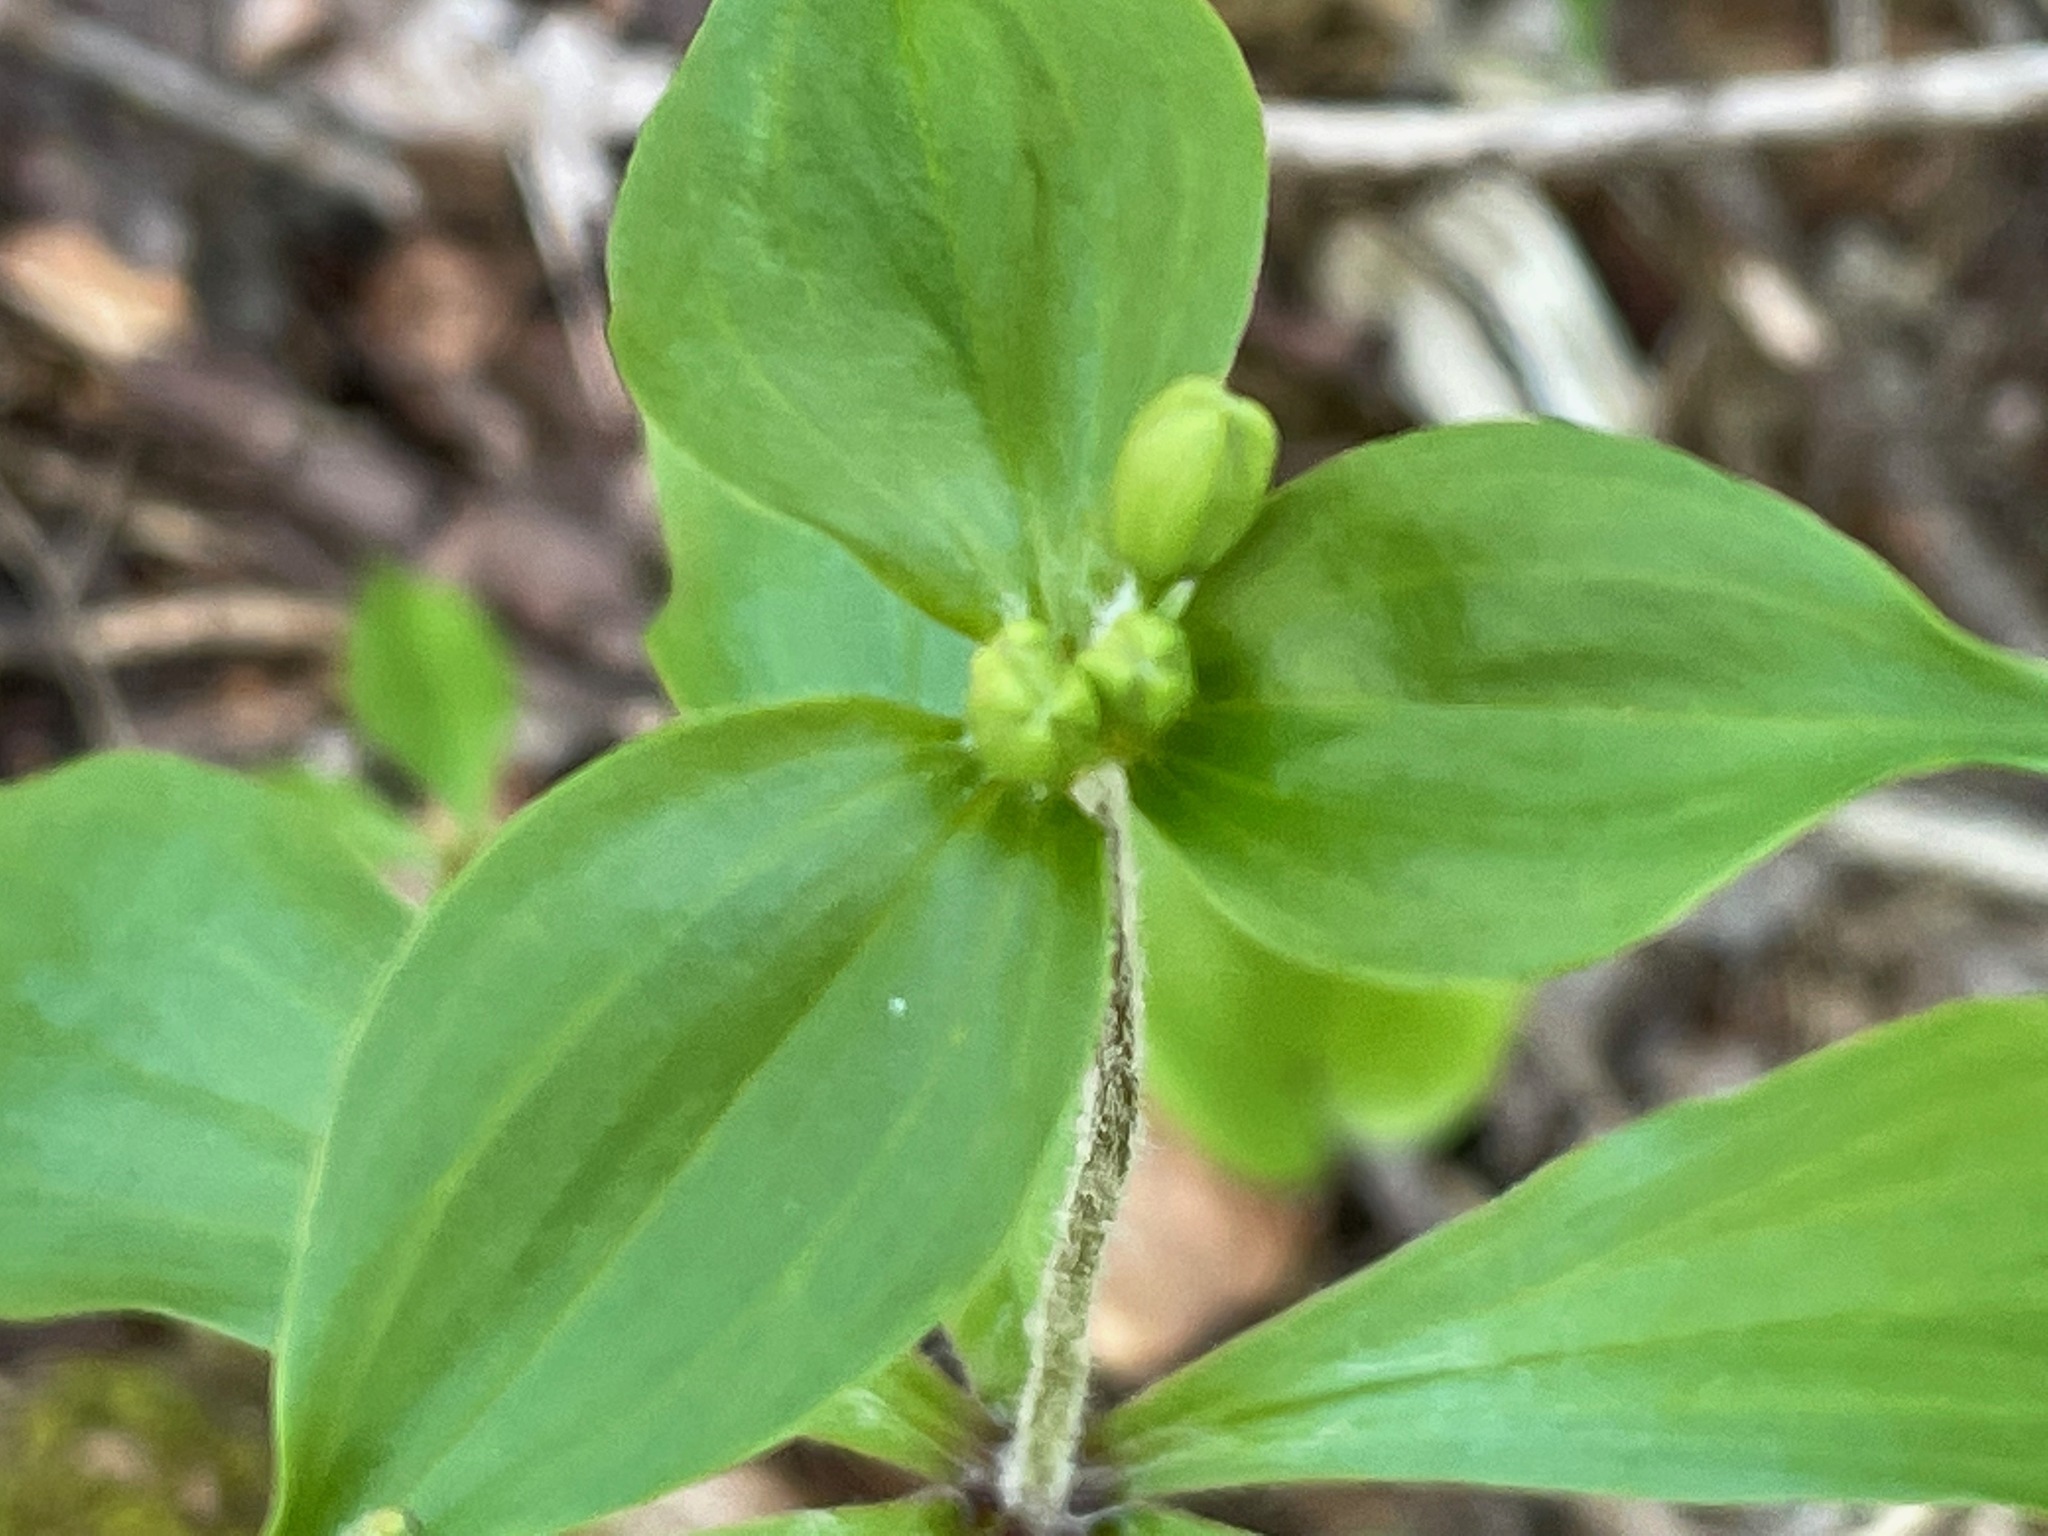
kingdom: Plantae
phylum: Tracheophyta
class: Liliopsida
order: Liliales
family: Liliaceae
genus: Medeola
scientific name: Medeola virginiana
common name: Indian cucumber-root
